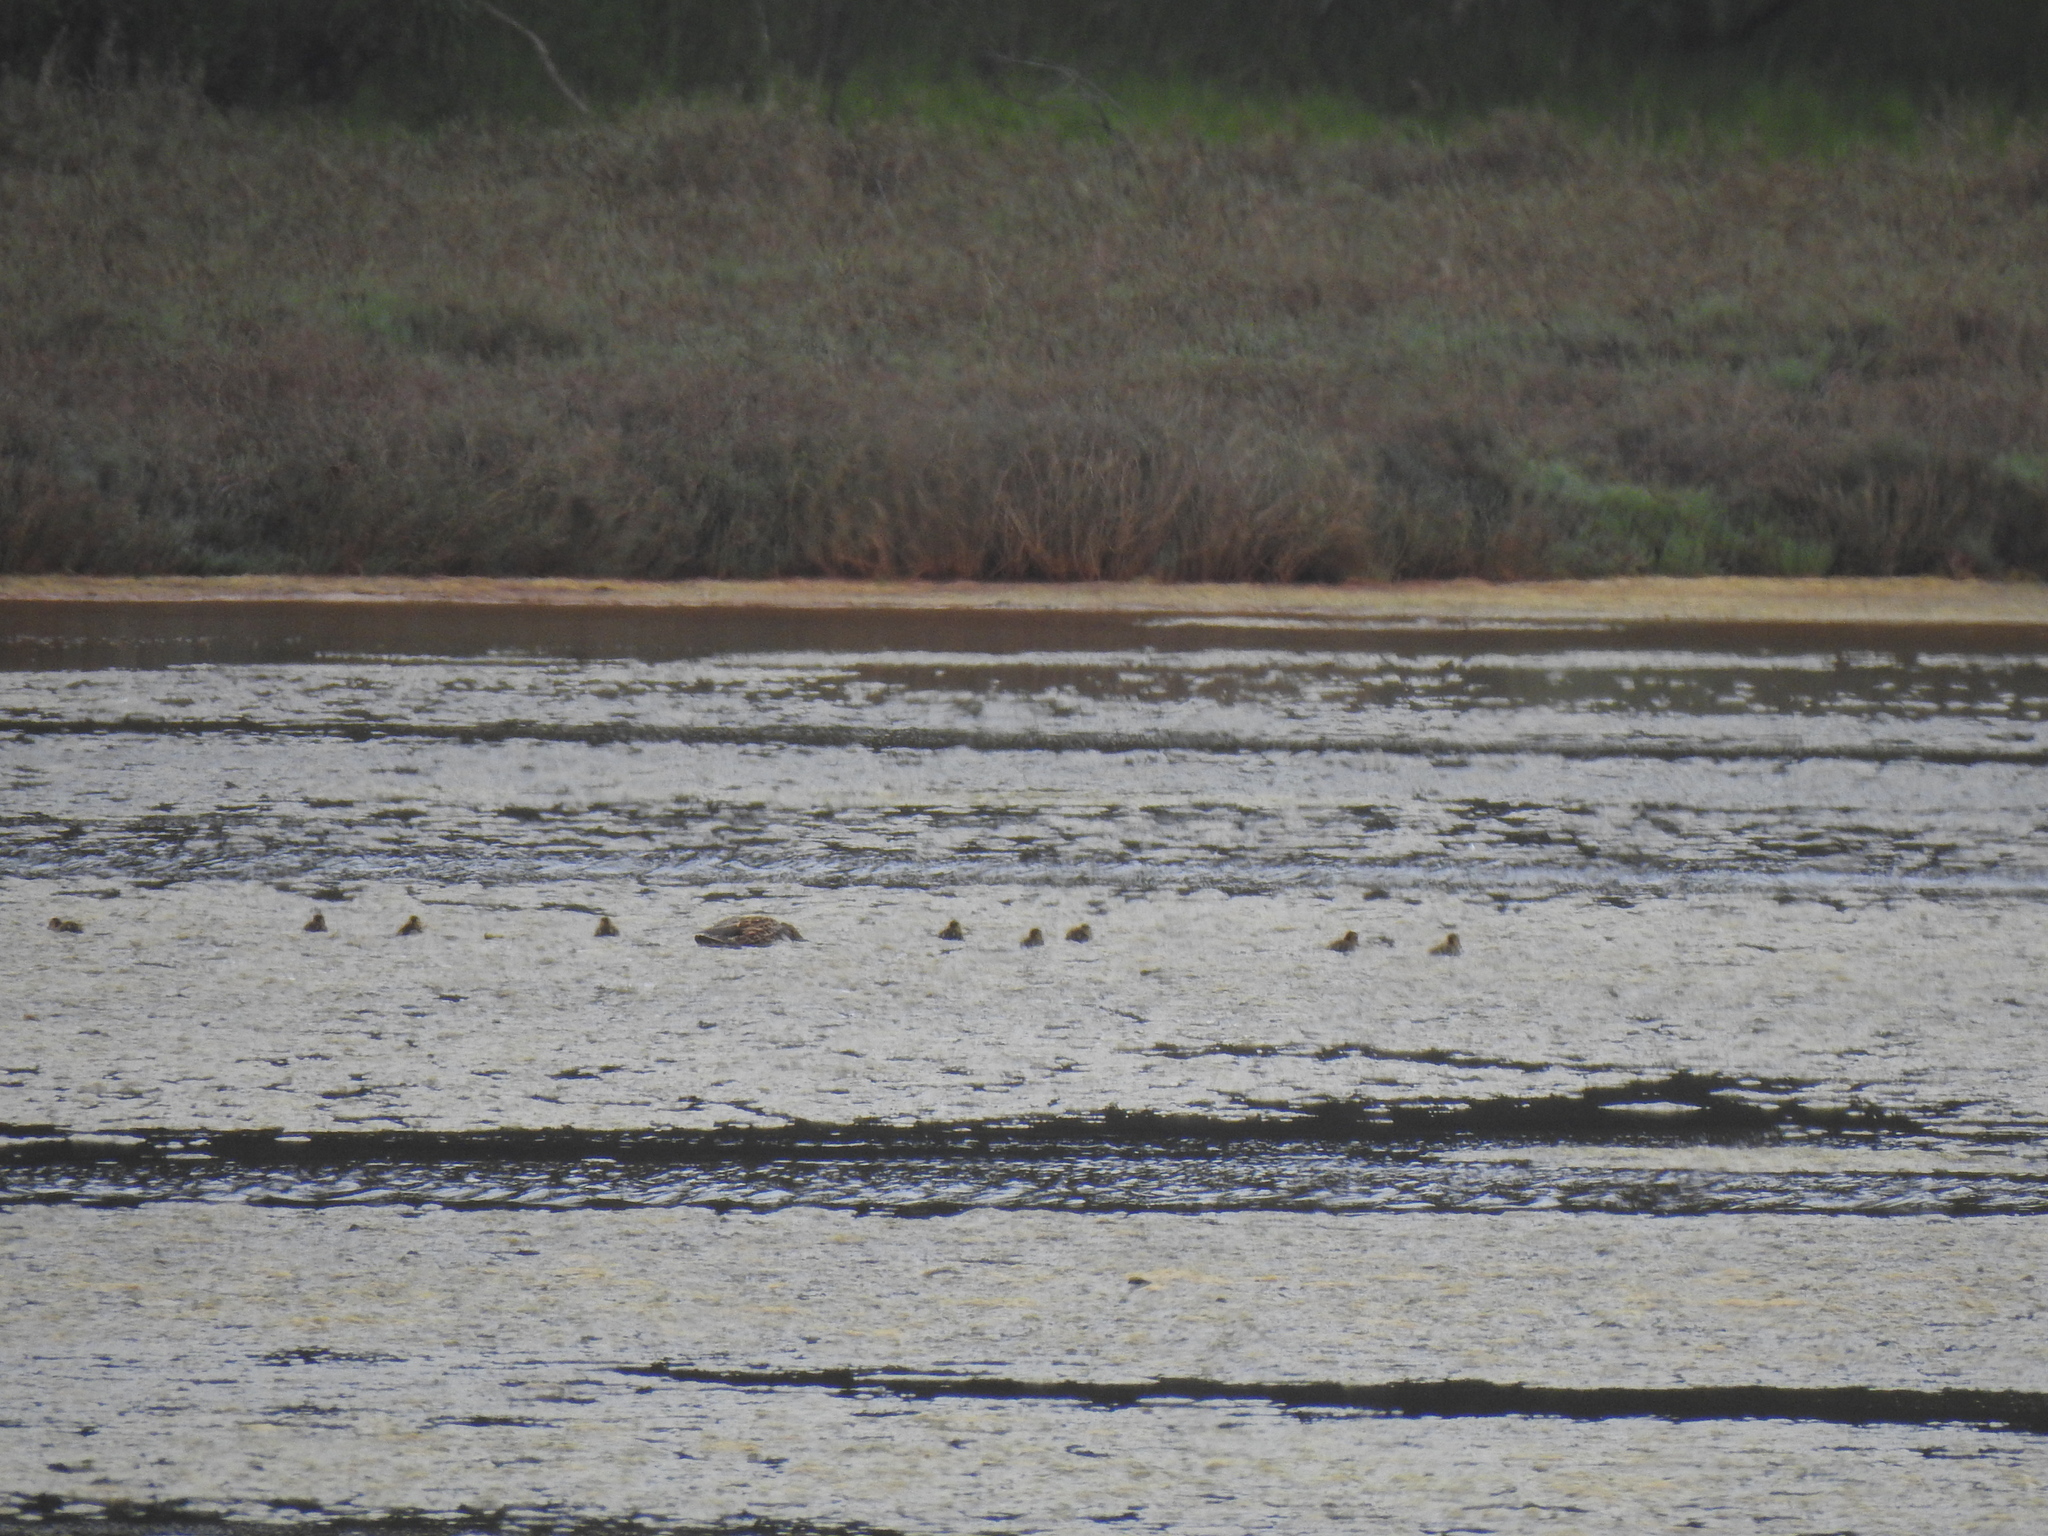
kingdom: Animalia
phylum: Chordata
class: Aves
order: Anseriformes
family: Anatidae
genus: Anas
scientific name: Anas platyrhynchos
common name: Mallard
